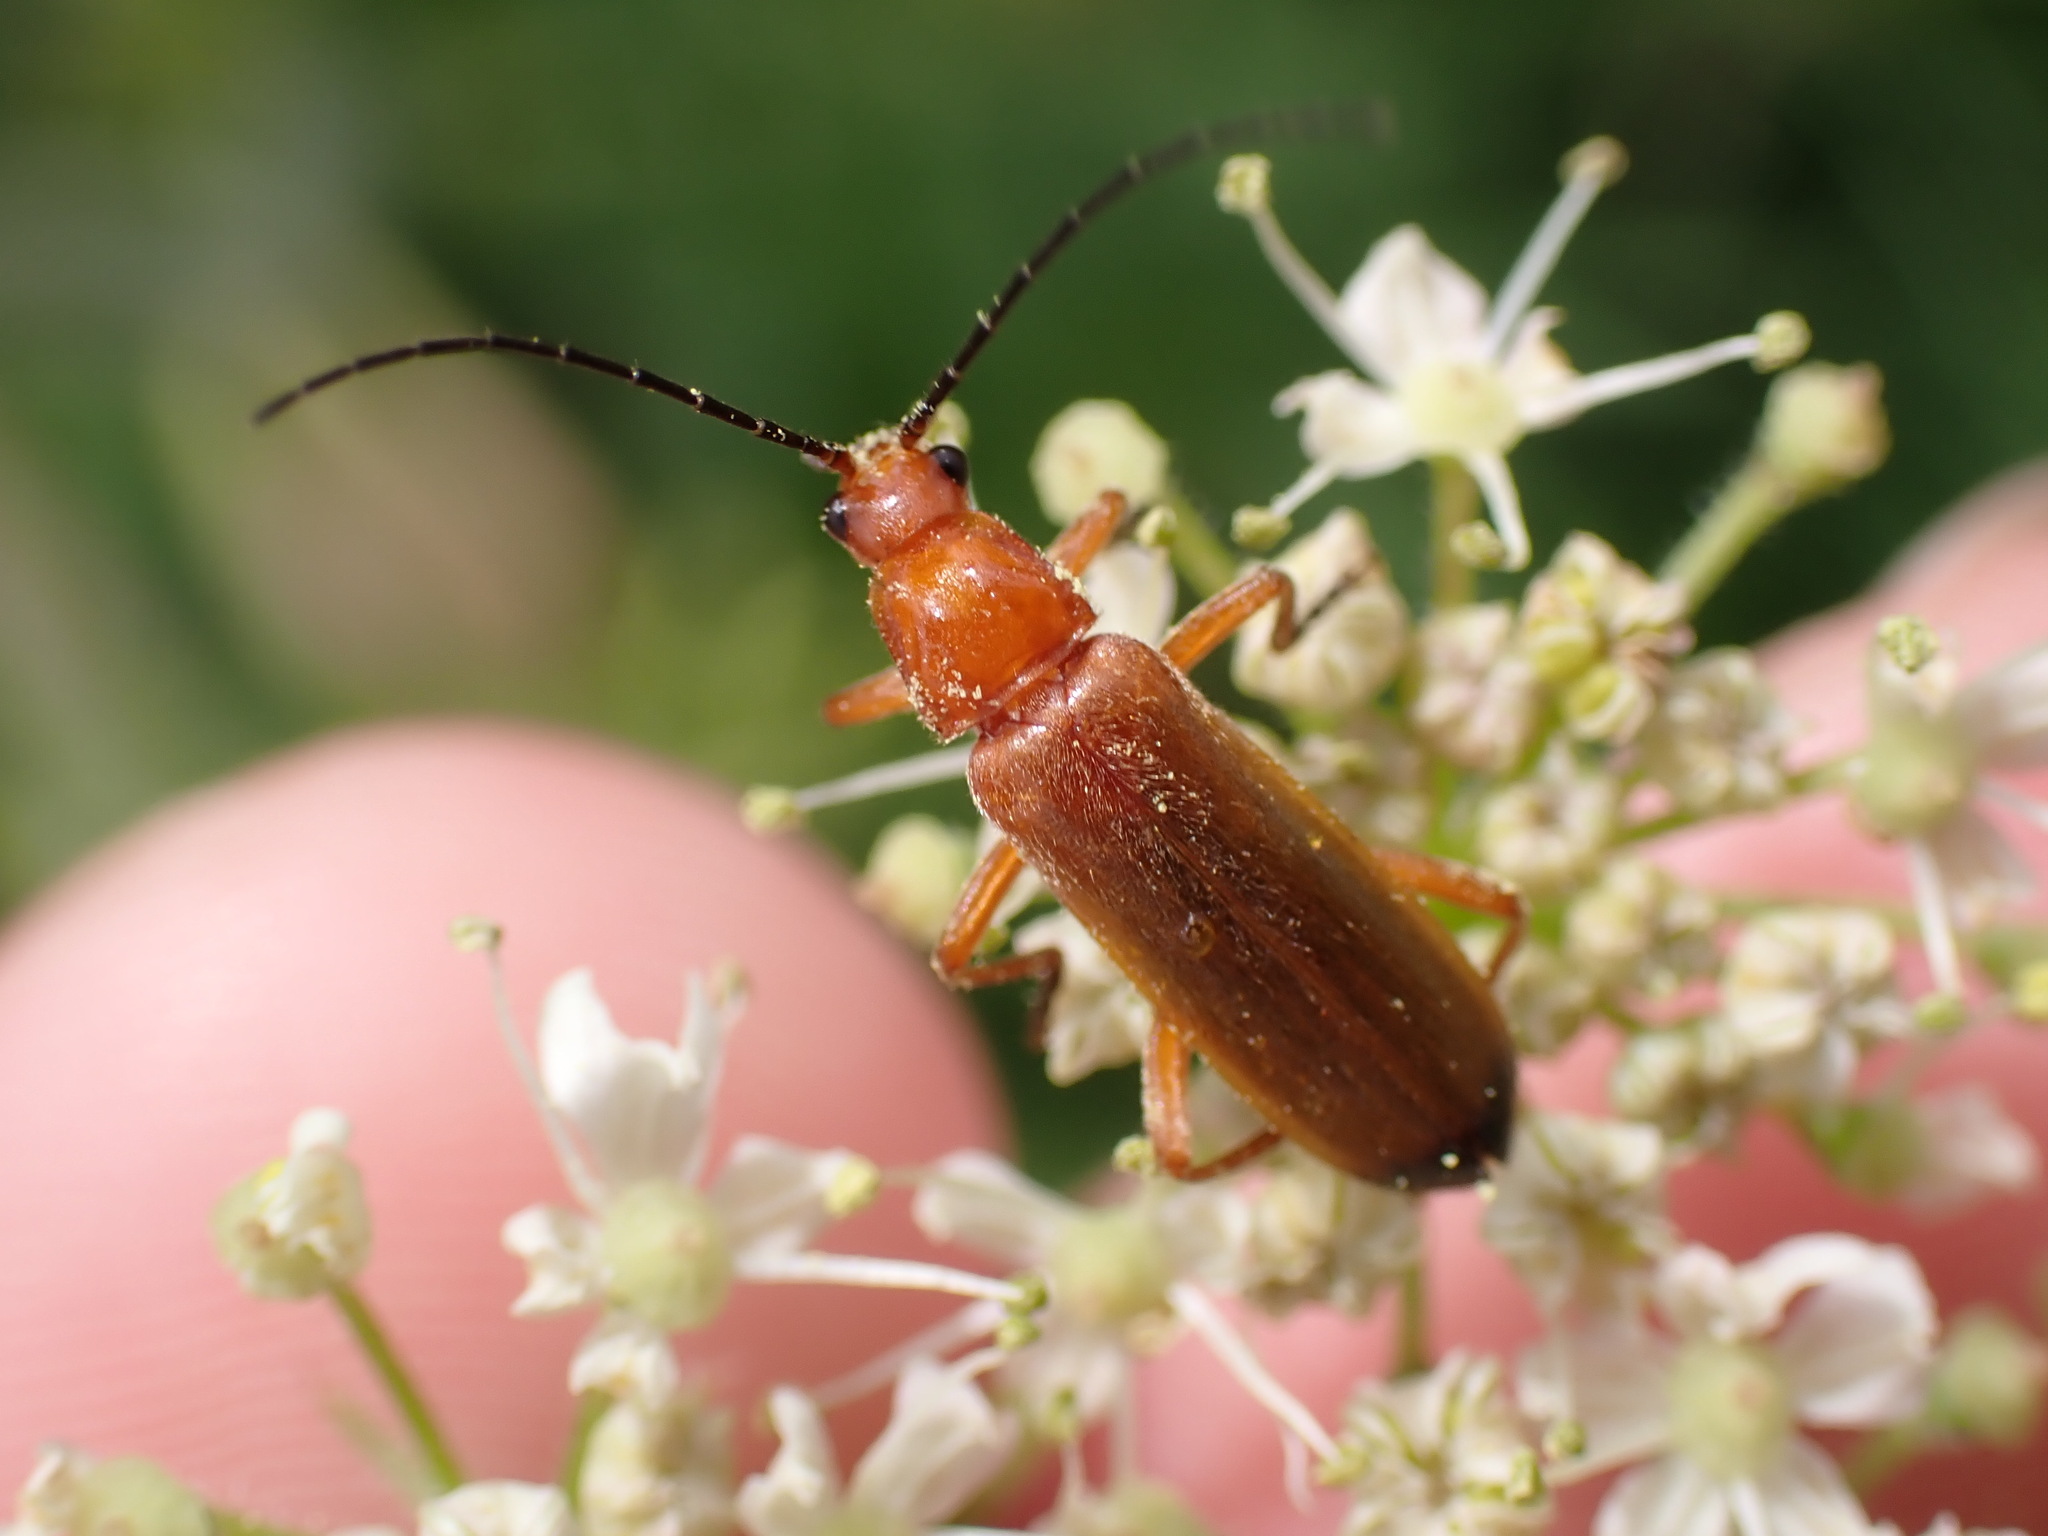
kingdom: Animalia
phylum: Arthropoda
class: Insecta
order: Coleoptera
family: Cantharidae
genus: Rhagonycha
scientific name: Rhagonycha fulva
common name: Common red soldier beetle
